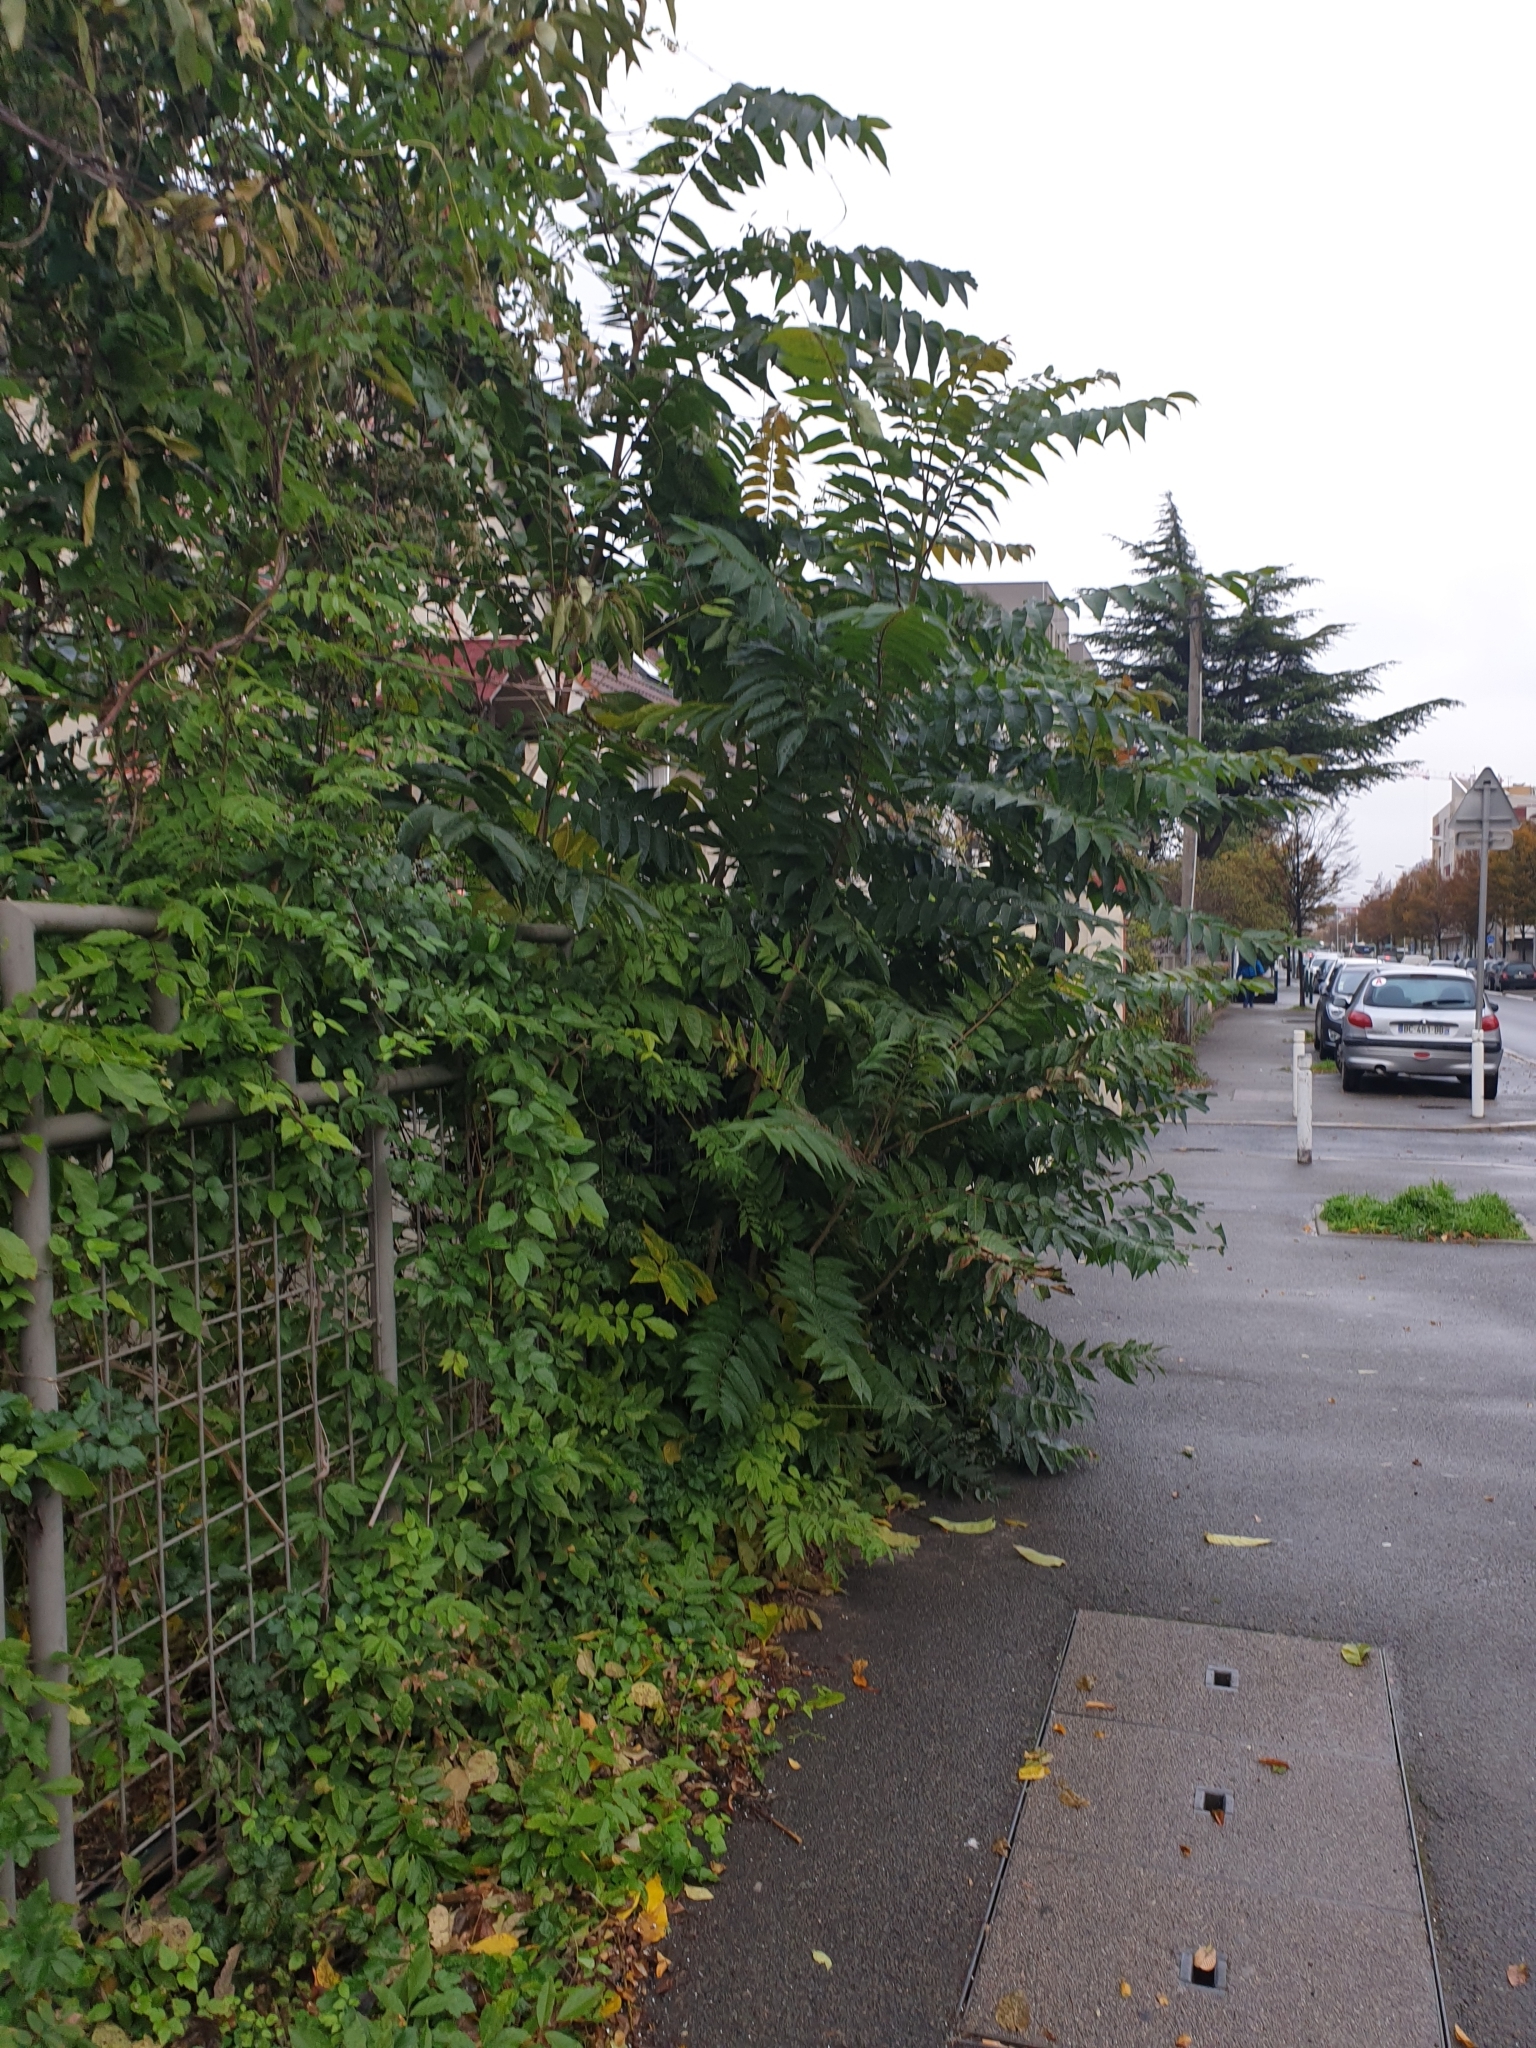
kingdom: Plantae
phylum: Tracheophyta
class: Magnoliopsida
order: Sapindales
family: Simaroubaceae
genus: Ailanthus
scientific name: Ailanthus altissima
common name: Tree-of-heaven
